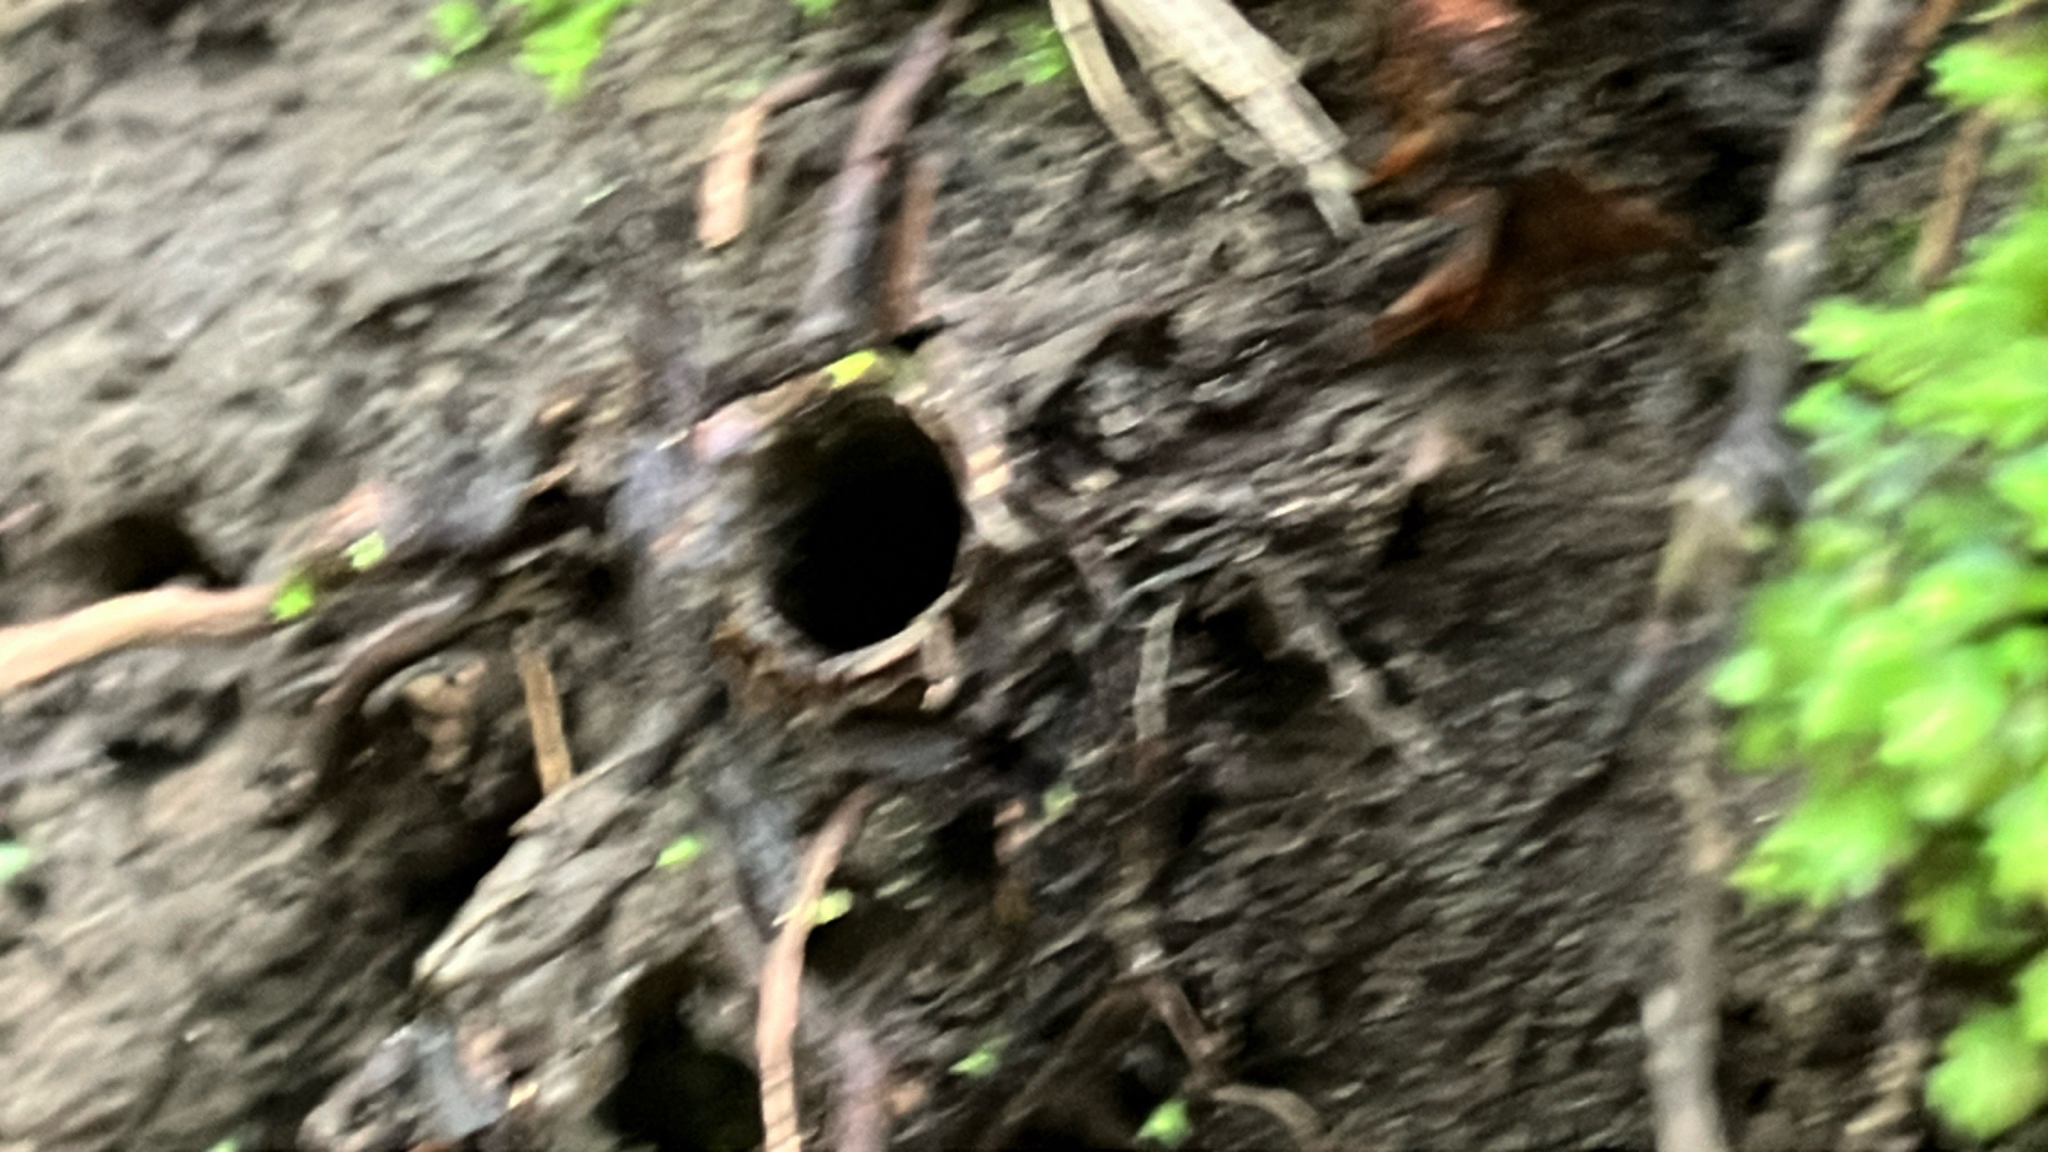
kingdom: Animalia
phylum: Arthropoda
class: Arachnida
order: Araneae
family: Antrodiaetidae
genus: Atypoides
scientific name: Atypoides riversi
